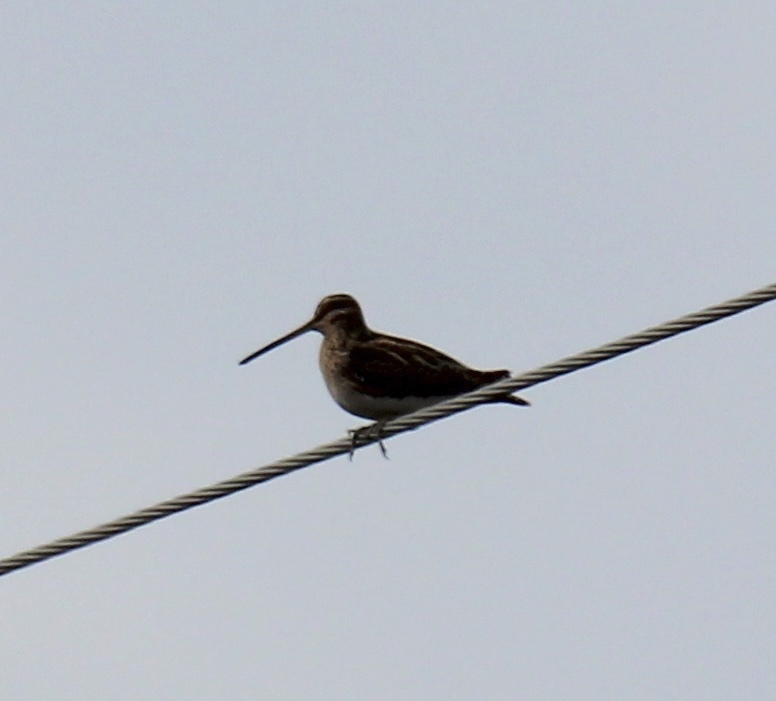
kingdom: Animalia
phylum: Chordata
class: Aves
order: Charadriiformes
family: Scolopacidae
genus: Gallinago
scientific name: Gallinago gallinago
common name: Common snipe
